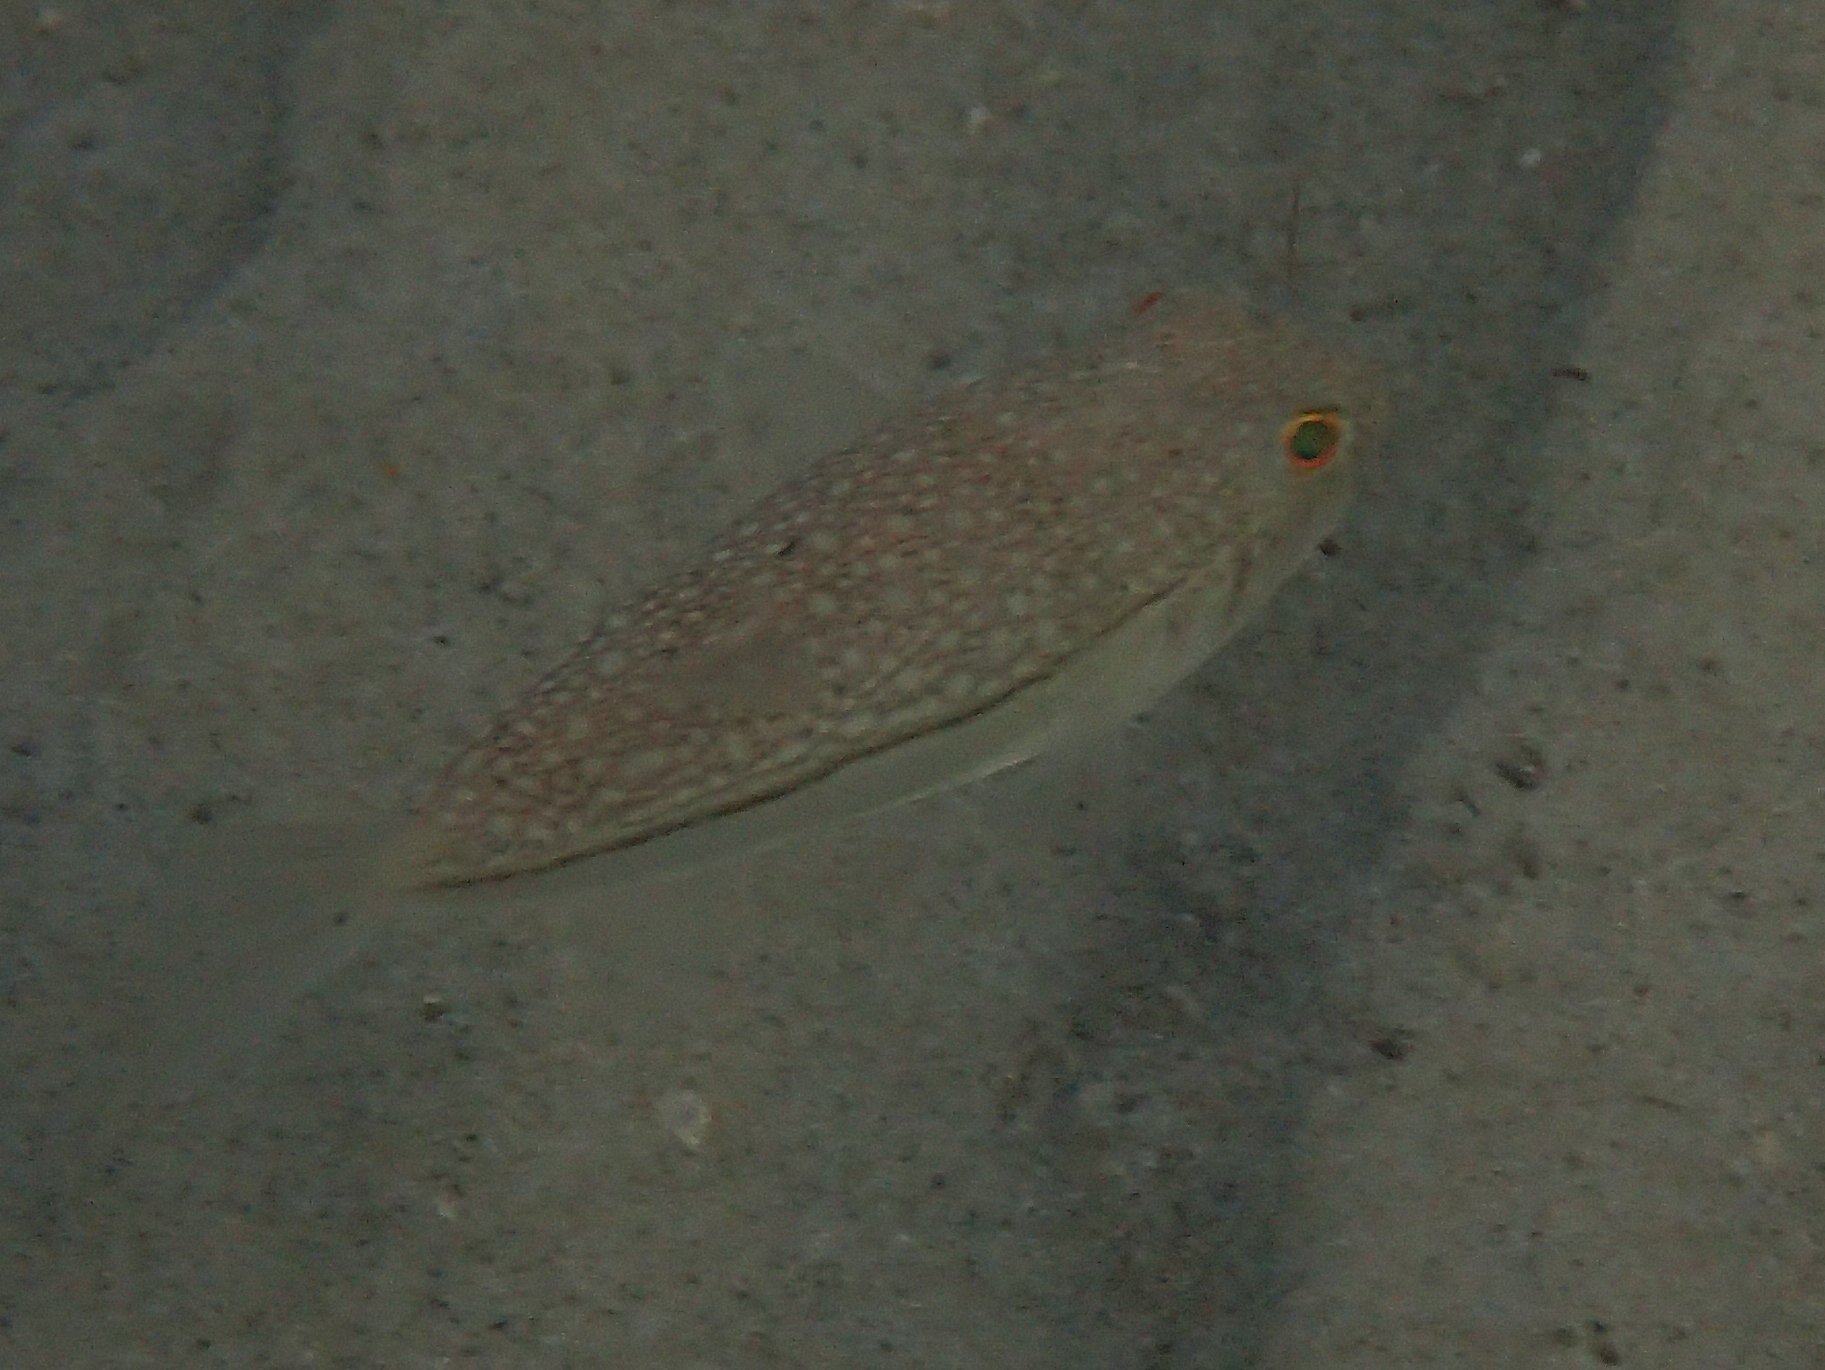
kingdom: Animalia
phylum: Chordata
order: Tetraodontiformes
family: Tetraodontidae
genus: Torquigener
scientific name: Torquigener pleurogramma
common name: Banded toadfish
